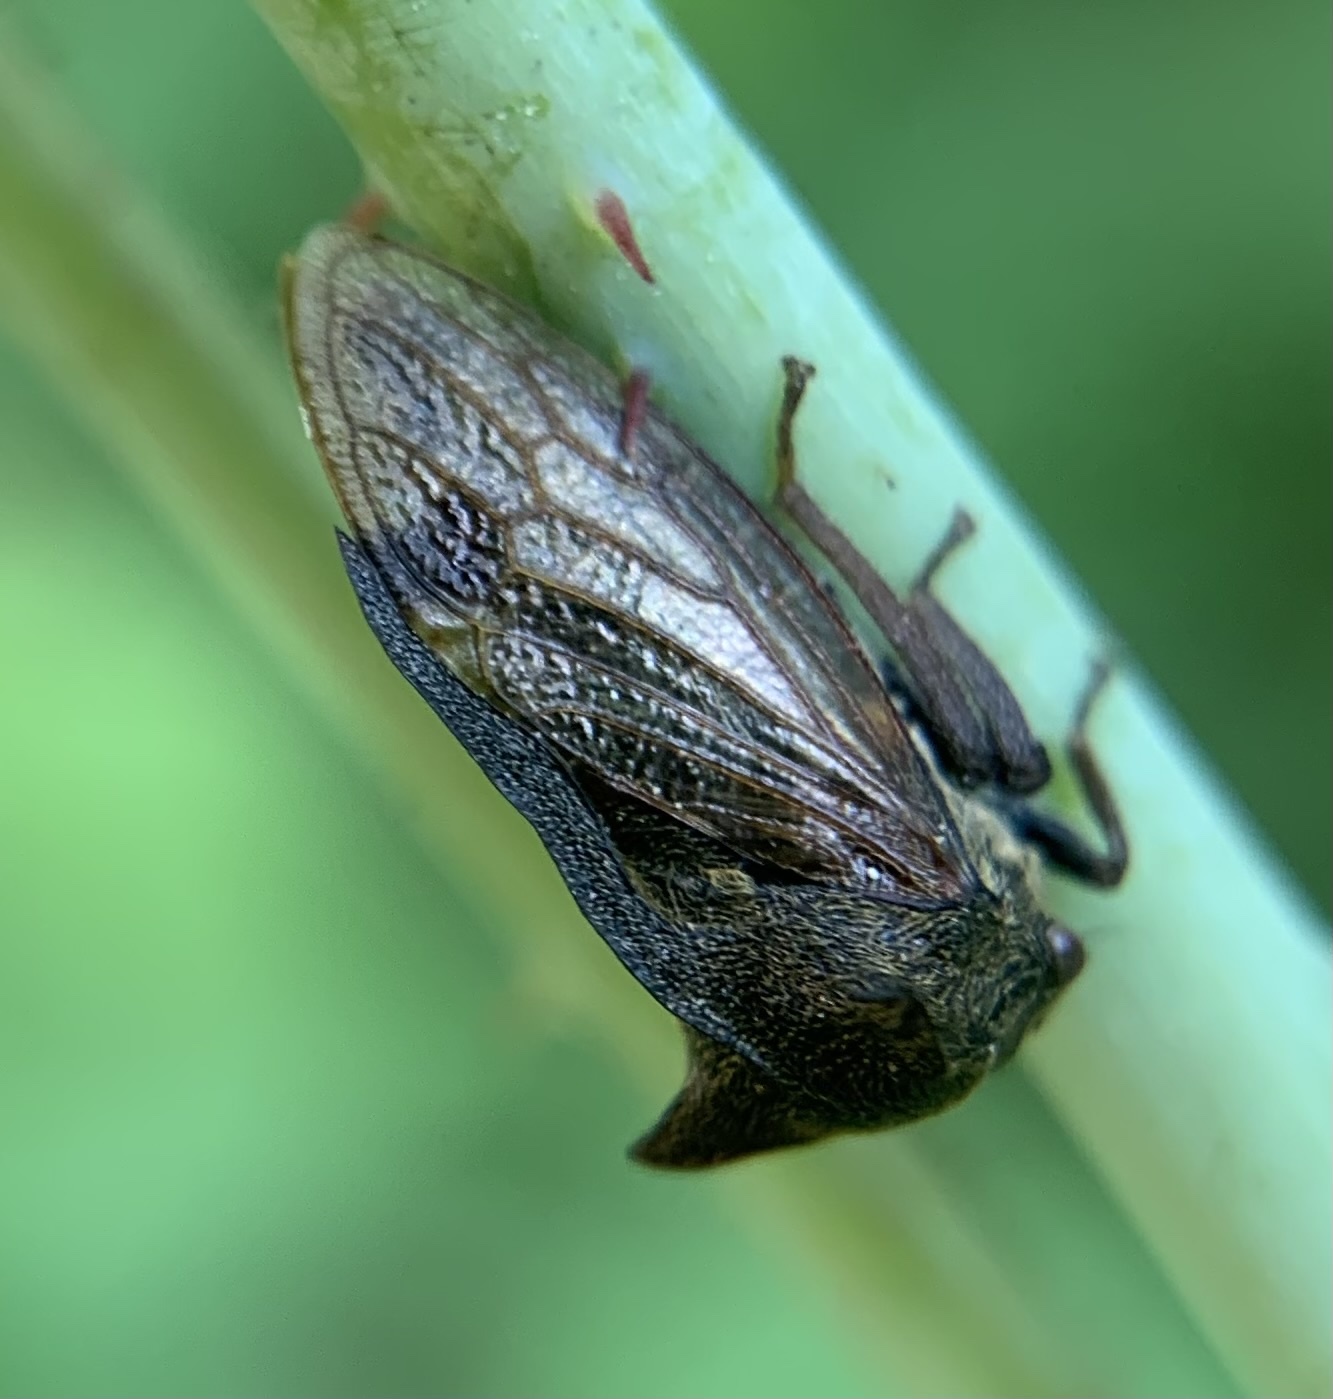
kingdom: Animalia
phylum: Arthropoda
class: Insecta
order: Hemiptera
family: Membracidae
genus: Centrotus
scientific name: Centrotus cornuta
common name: Treehopper
